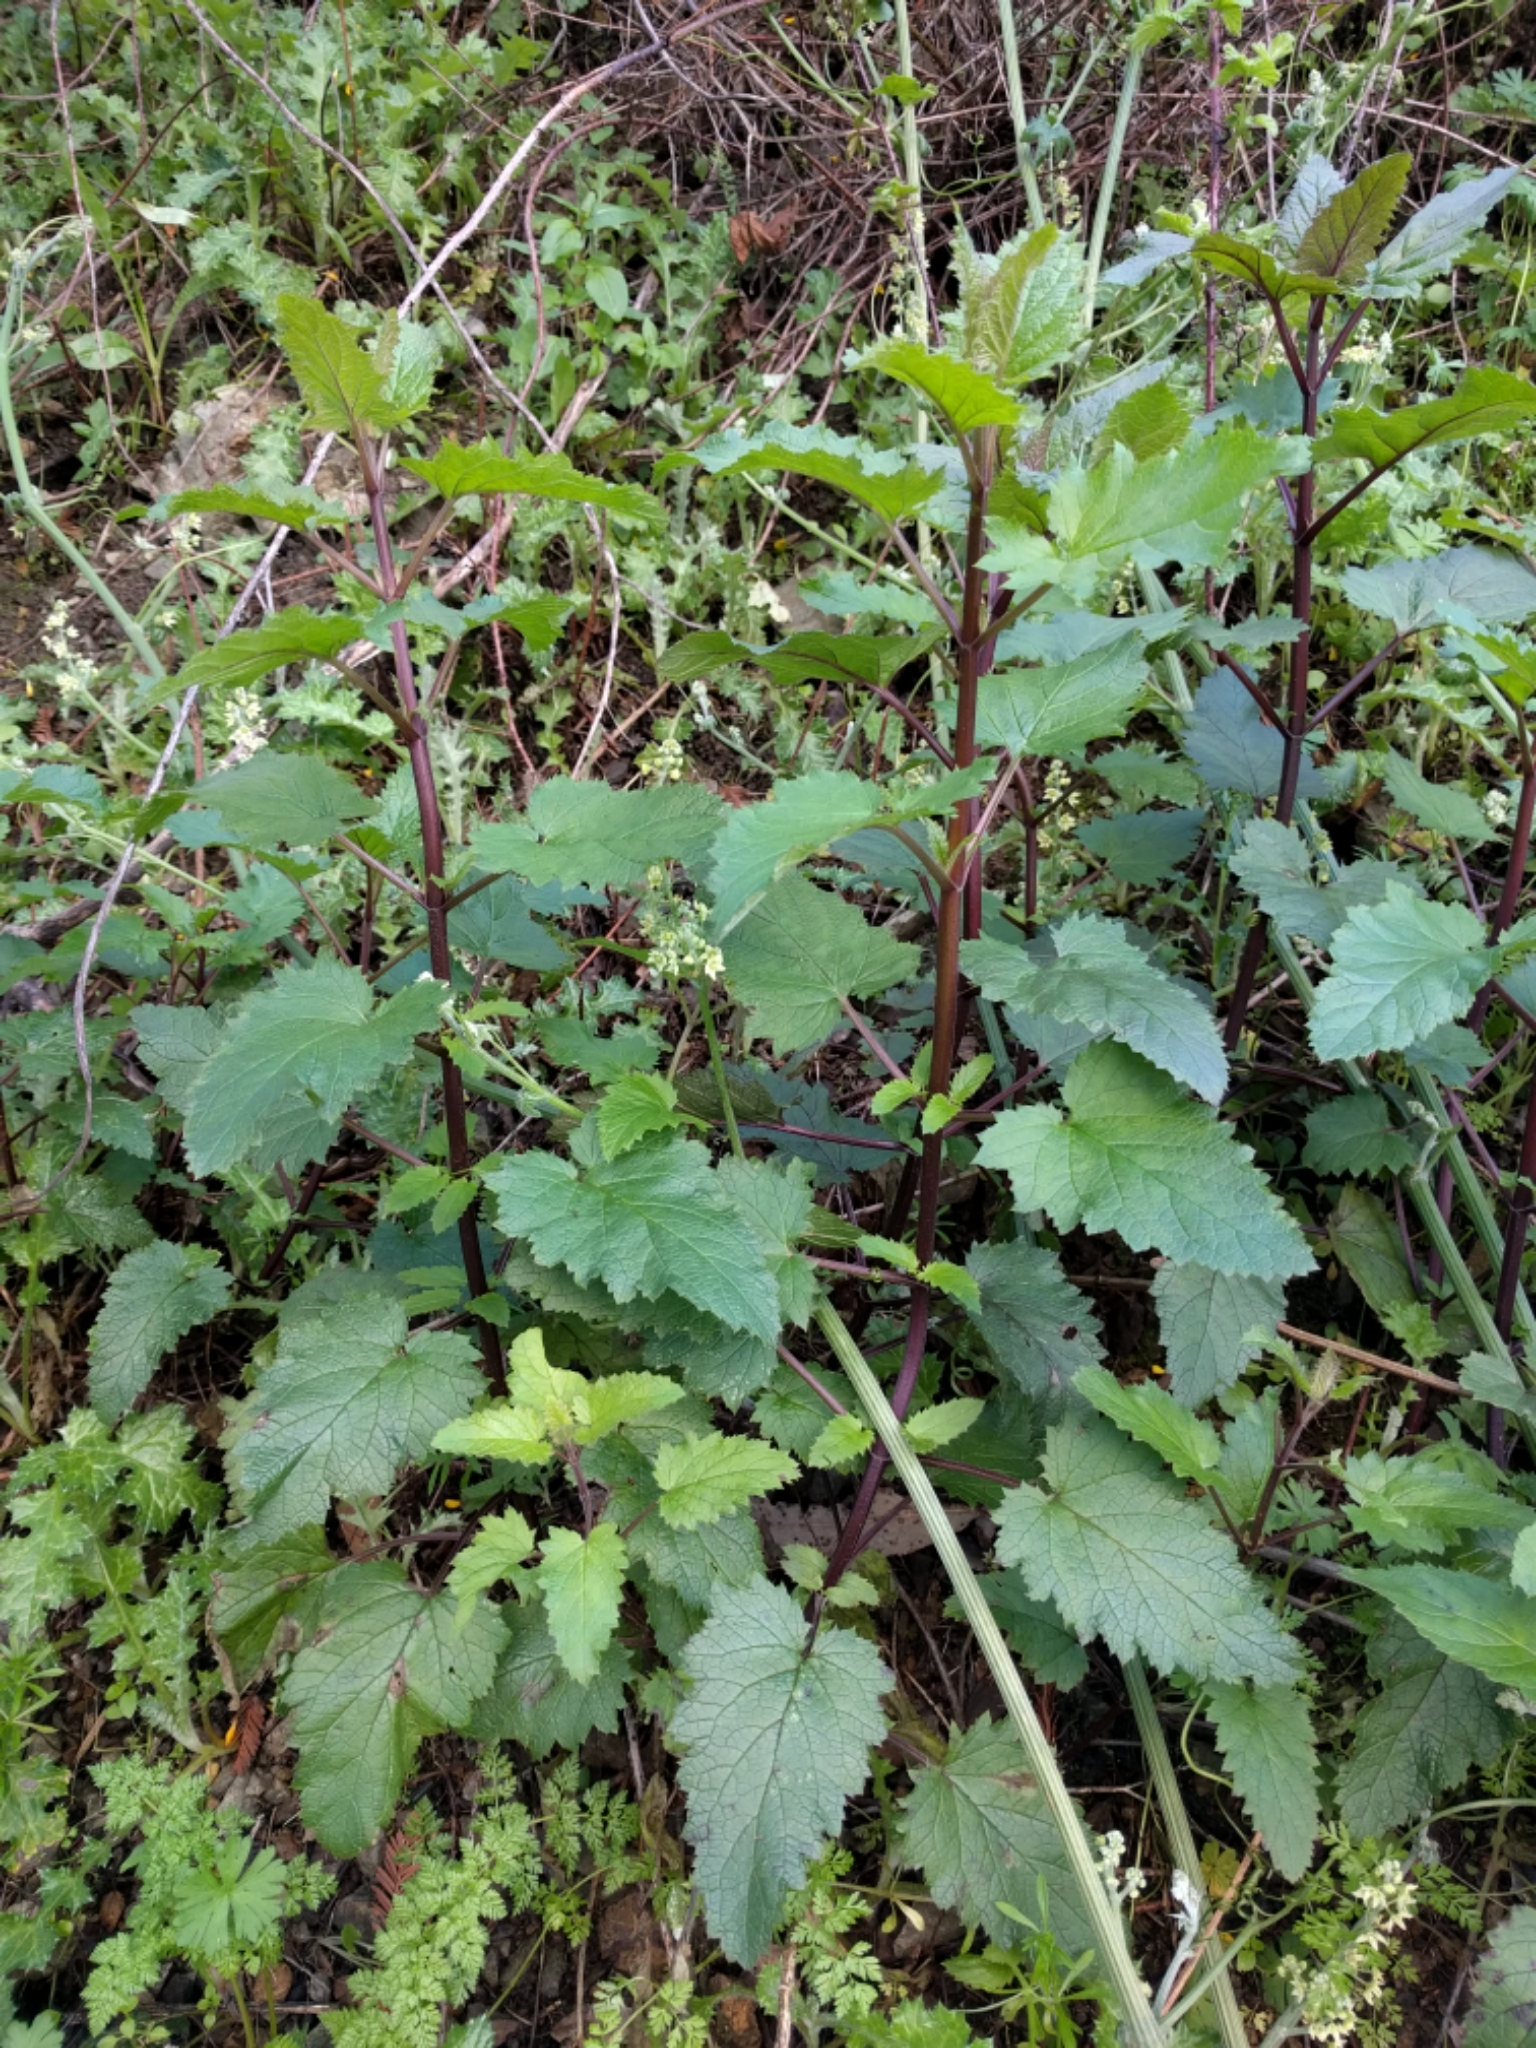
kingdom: Plantae
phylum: Tracheophyta
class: Magnoliopsida
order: Lamiales
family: Scrophulariaceae
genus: Scrophularia
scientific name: Scrophularia californica
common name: California figwort
